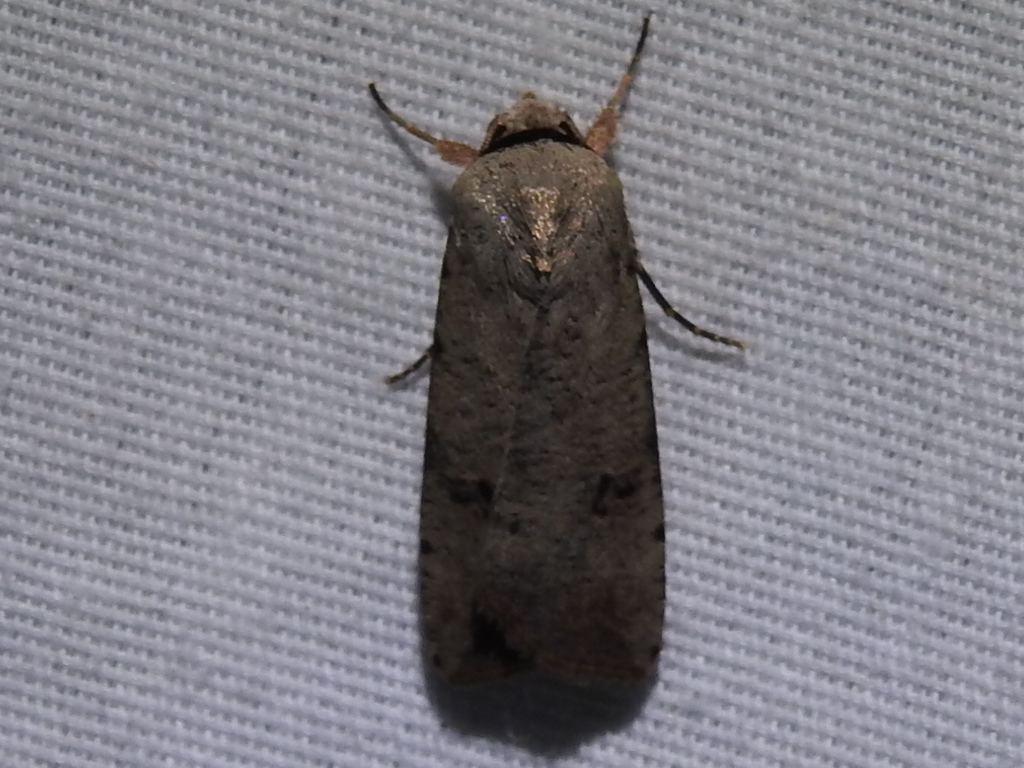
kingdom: Animalia
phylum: Arthropoda
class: Insecta
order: Lepidoptera
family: Noctuidae
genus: Anicla
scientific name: Anicla infecta
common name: Green cutworm
